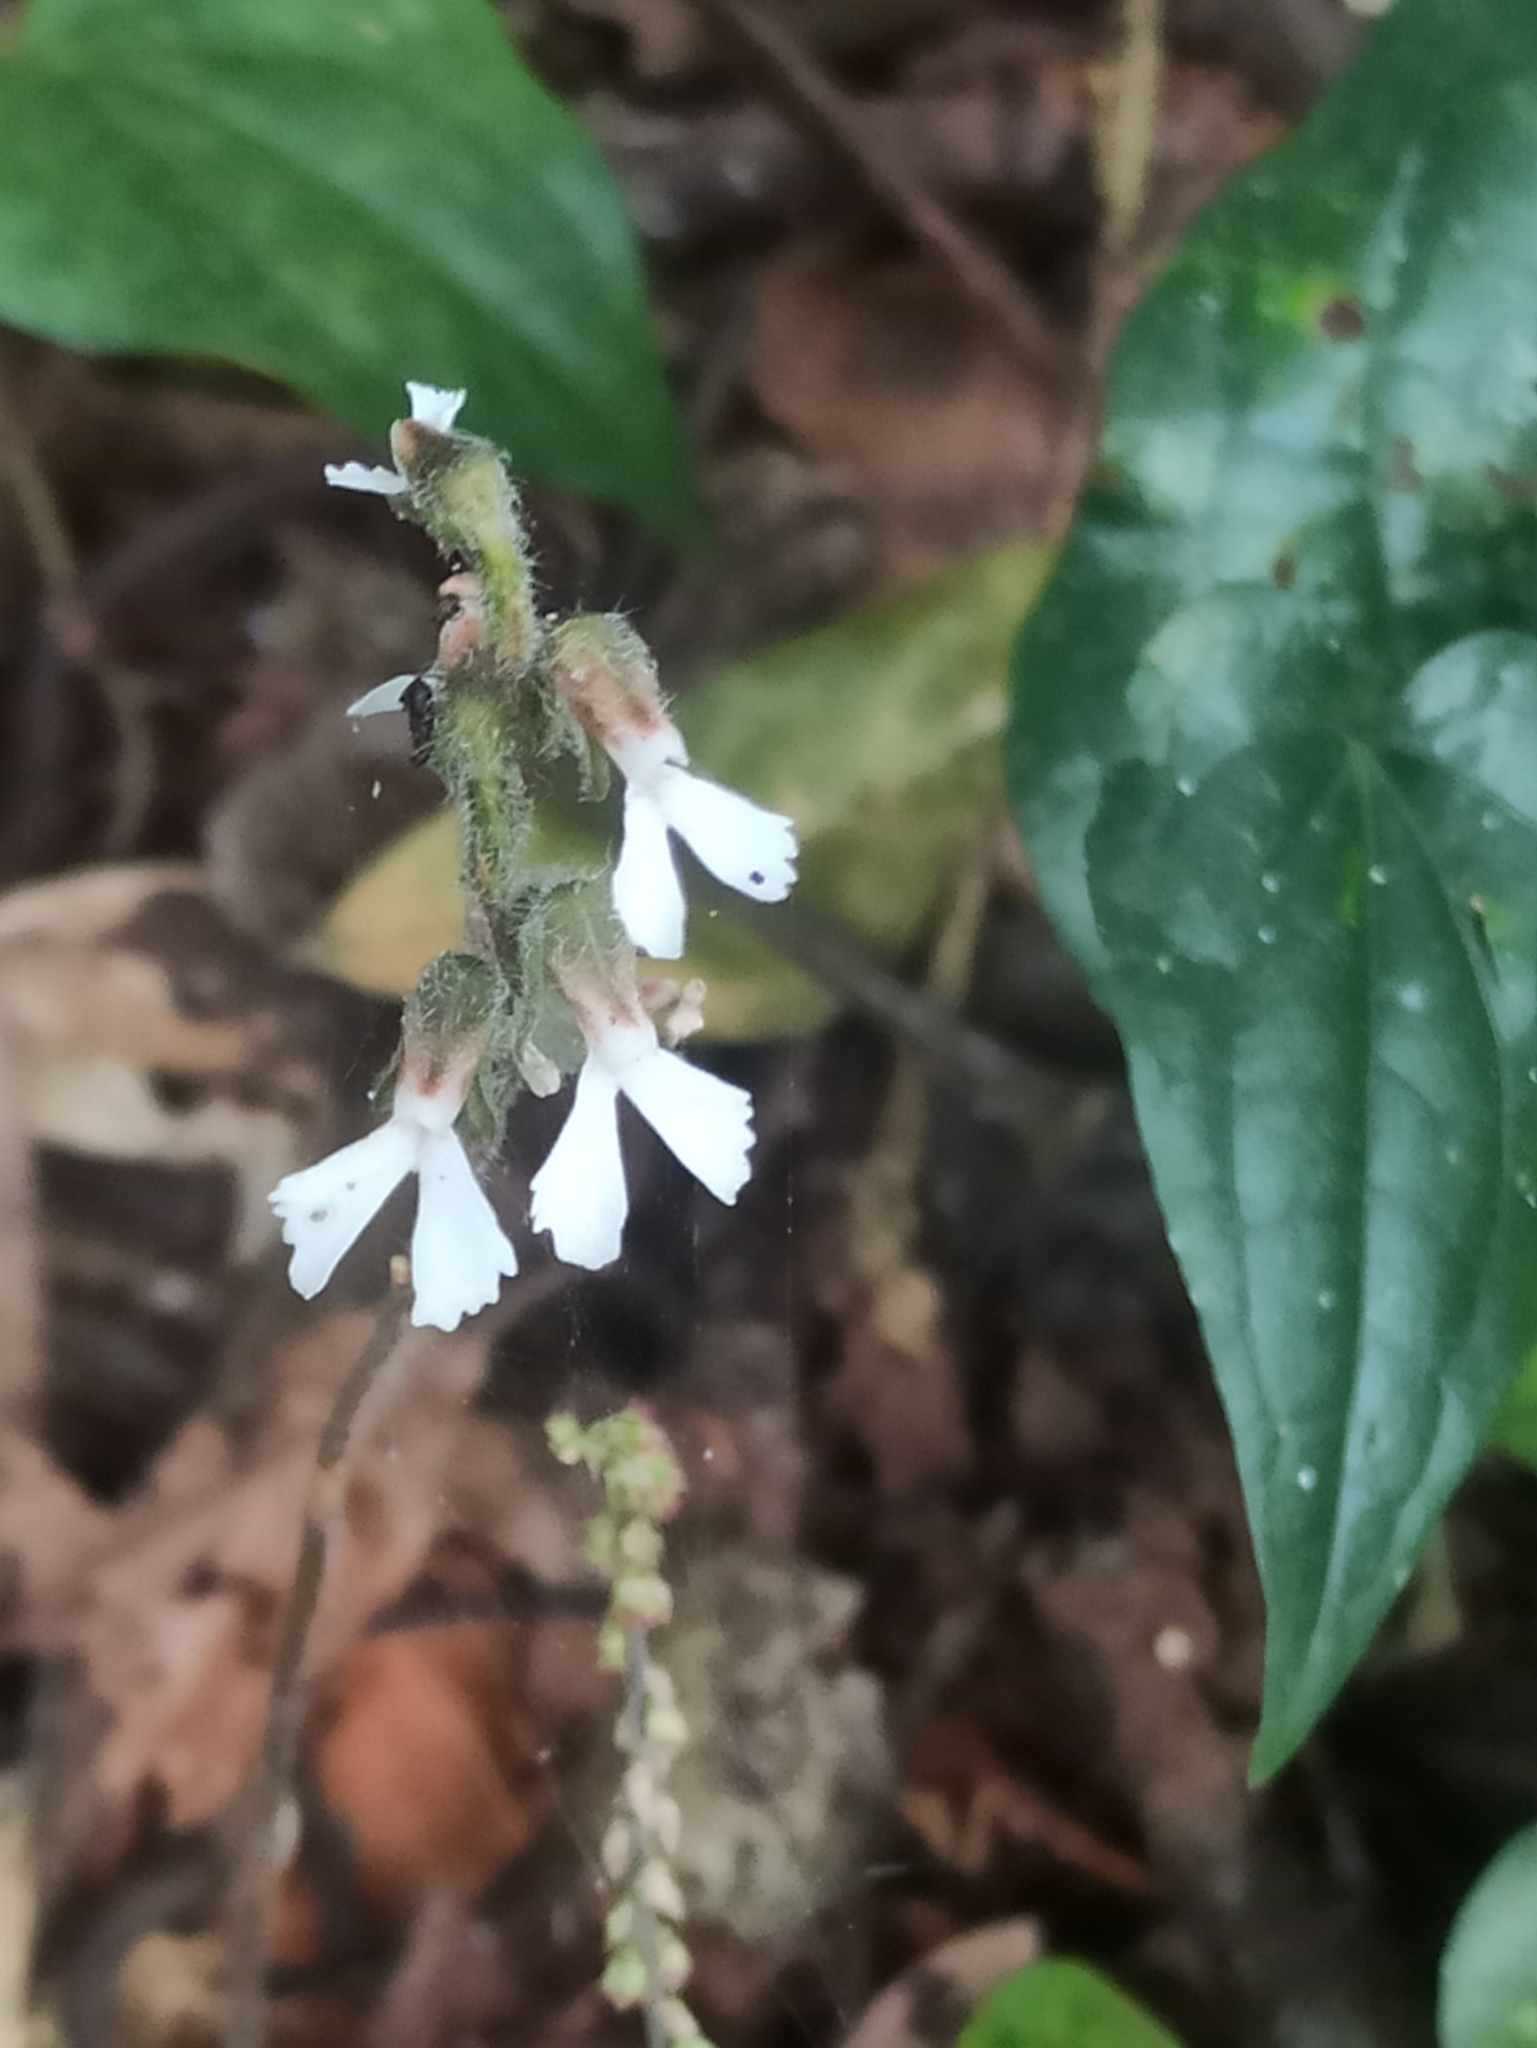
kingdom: Plantae
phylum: Tracheophyta
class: Liliopsida
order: Asparagales
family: Orchidaceae
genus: Zeuxine
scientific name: Zeuxine longilabris
